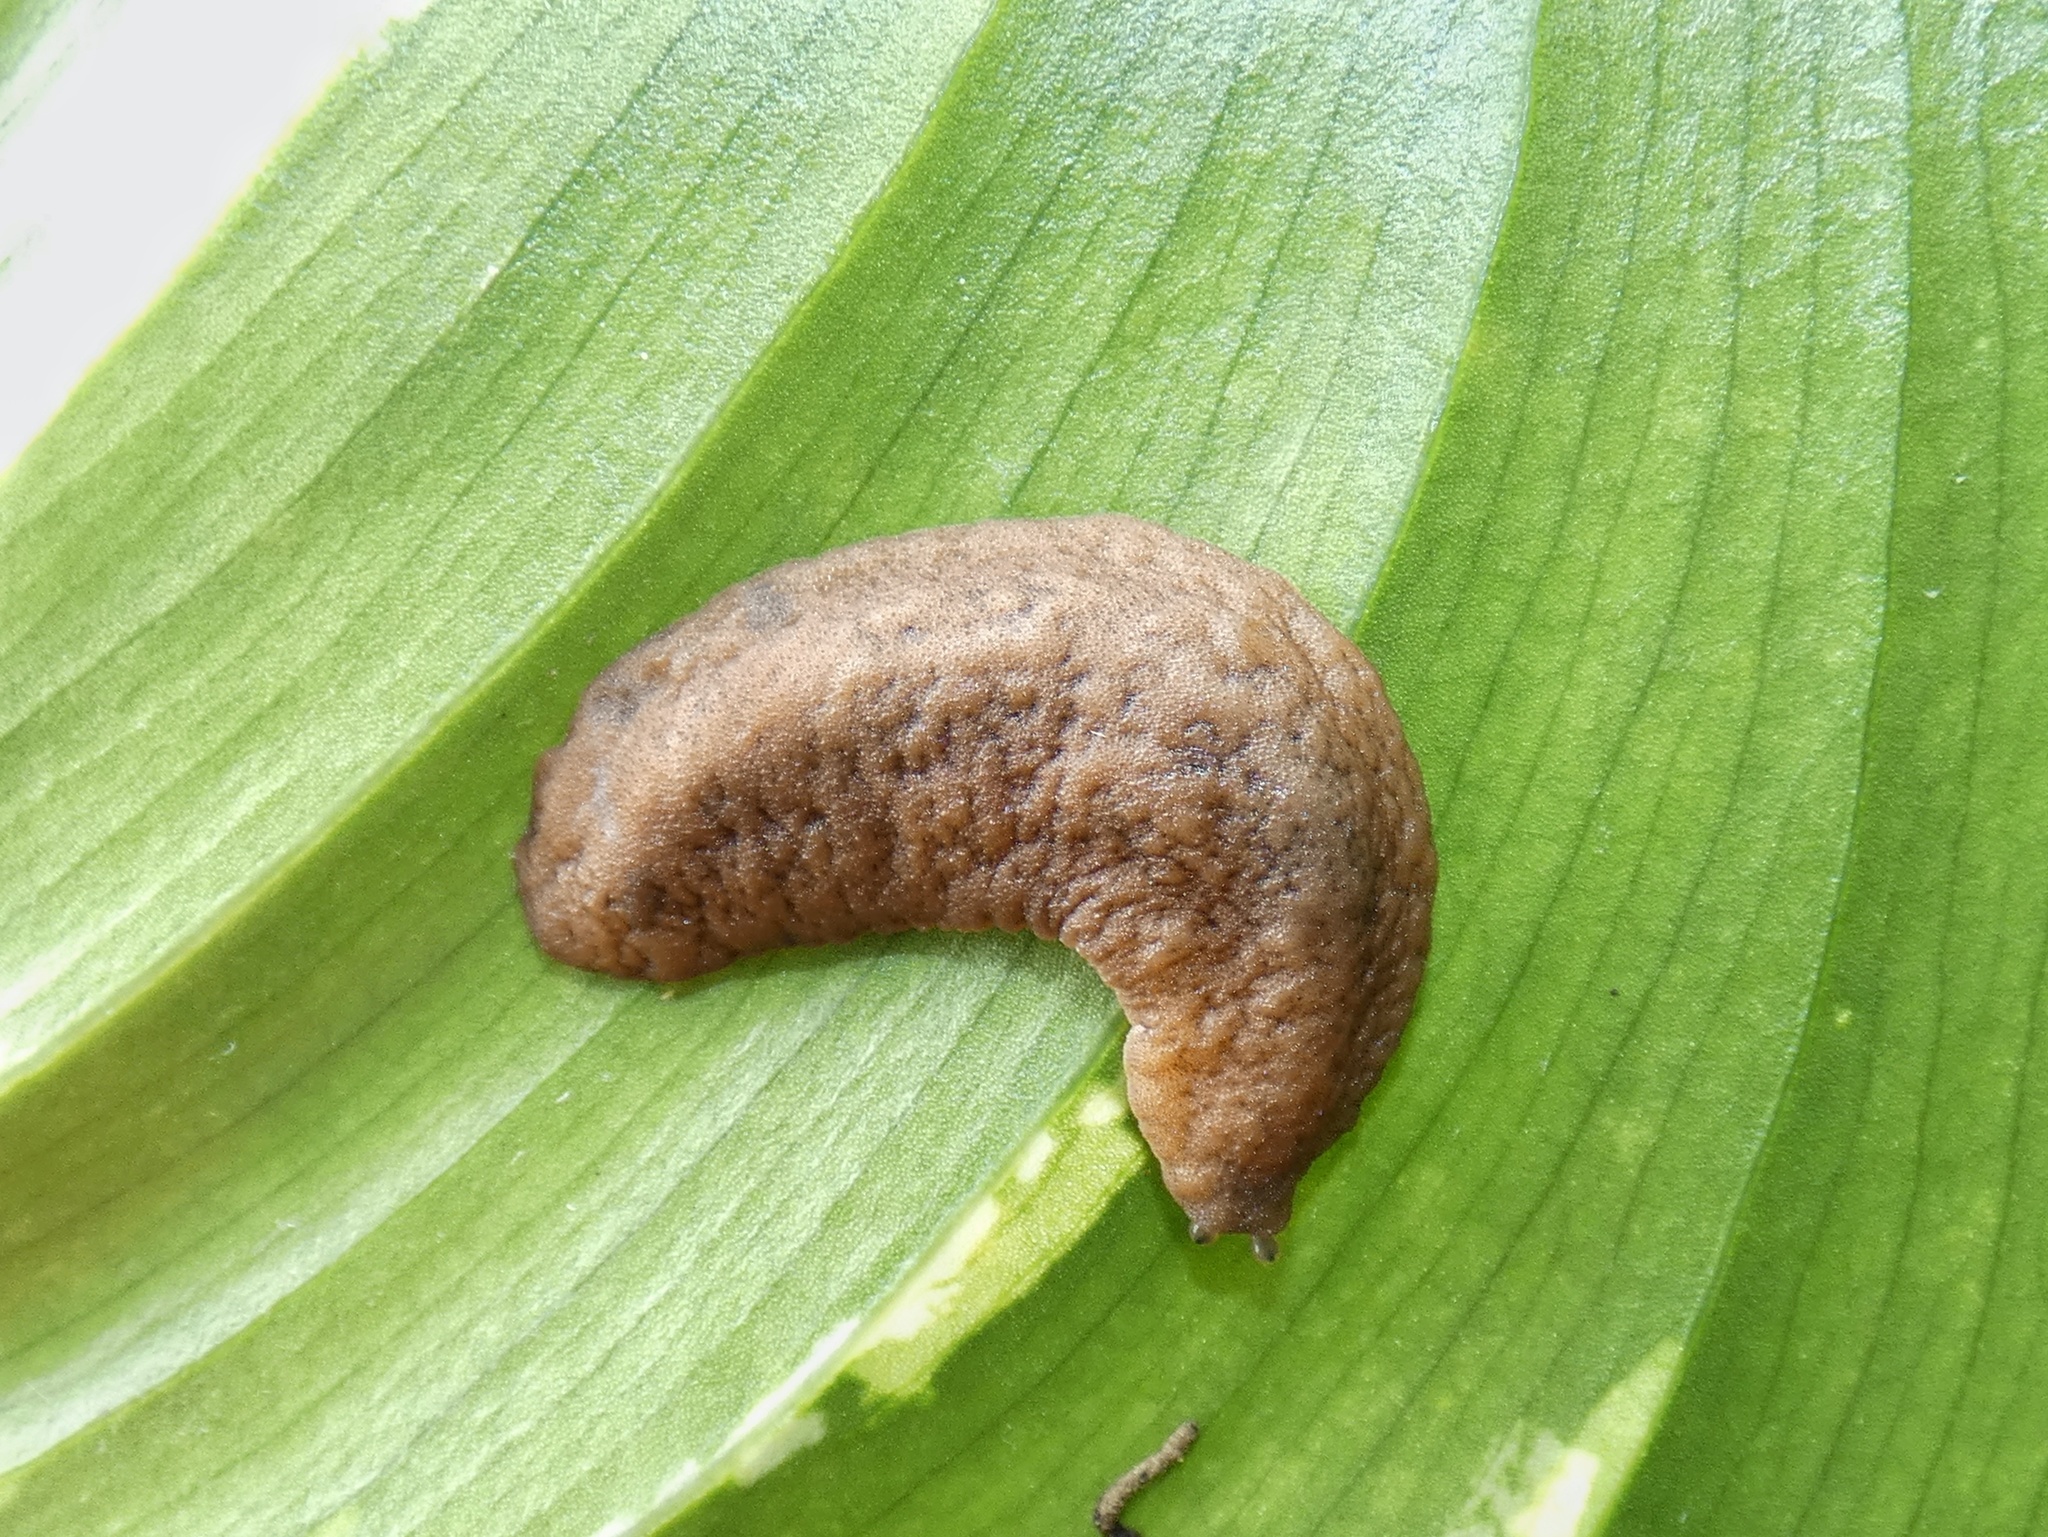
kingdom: Animalia
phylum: Mollusca
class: Gastropoda
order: Systellommatophora
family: Veronicellidae
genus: Sarasinula
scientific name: Sarasinula plebeia
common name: Caribbean leatherleaf
